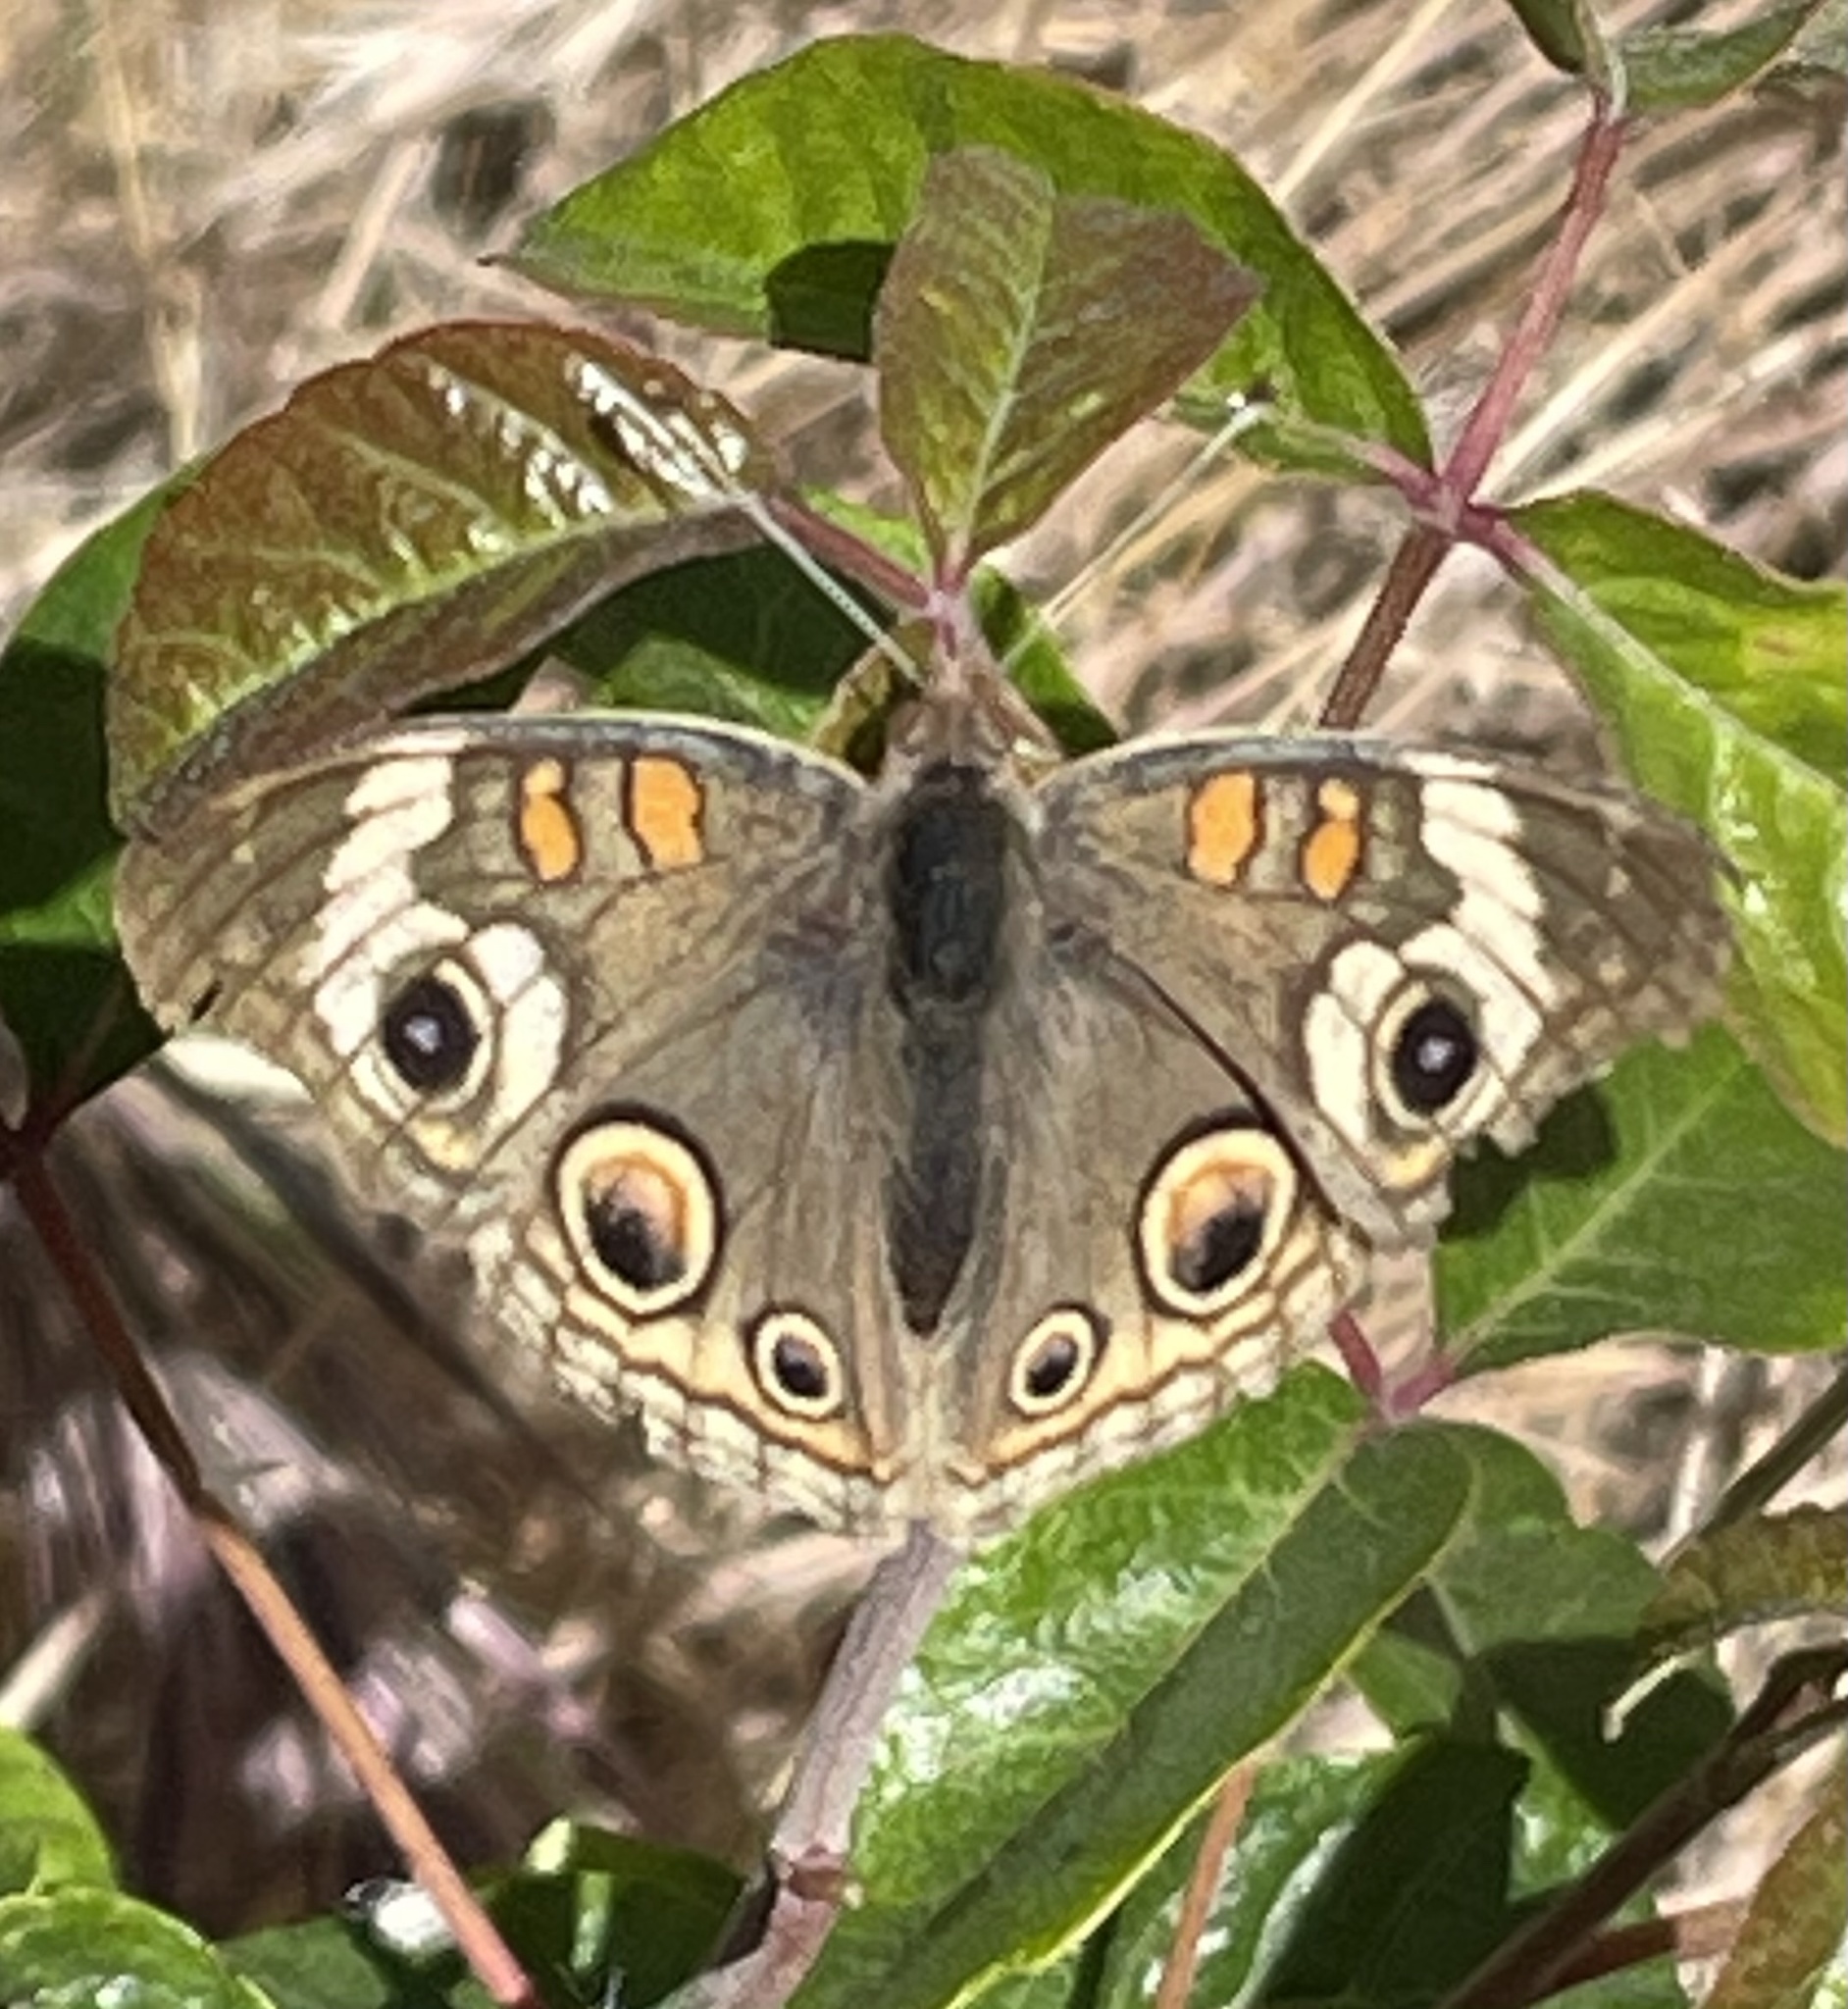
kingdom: Animalia
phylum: Arthropoda
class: Insecta
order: Lepidoptera
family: Nymphalidae
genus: Junonia
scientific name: Junonia grisea
